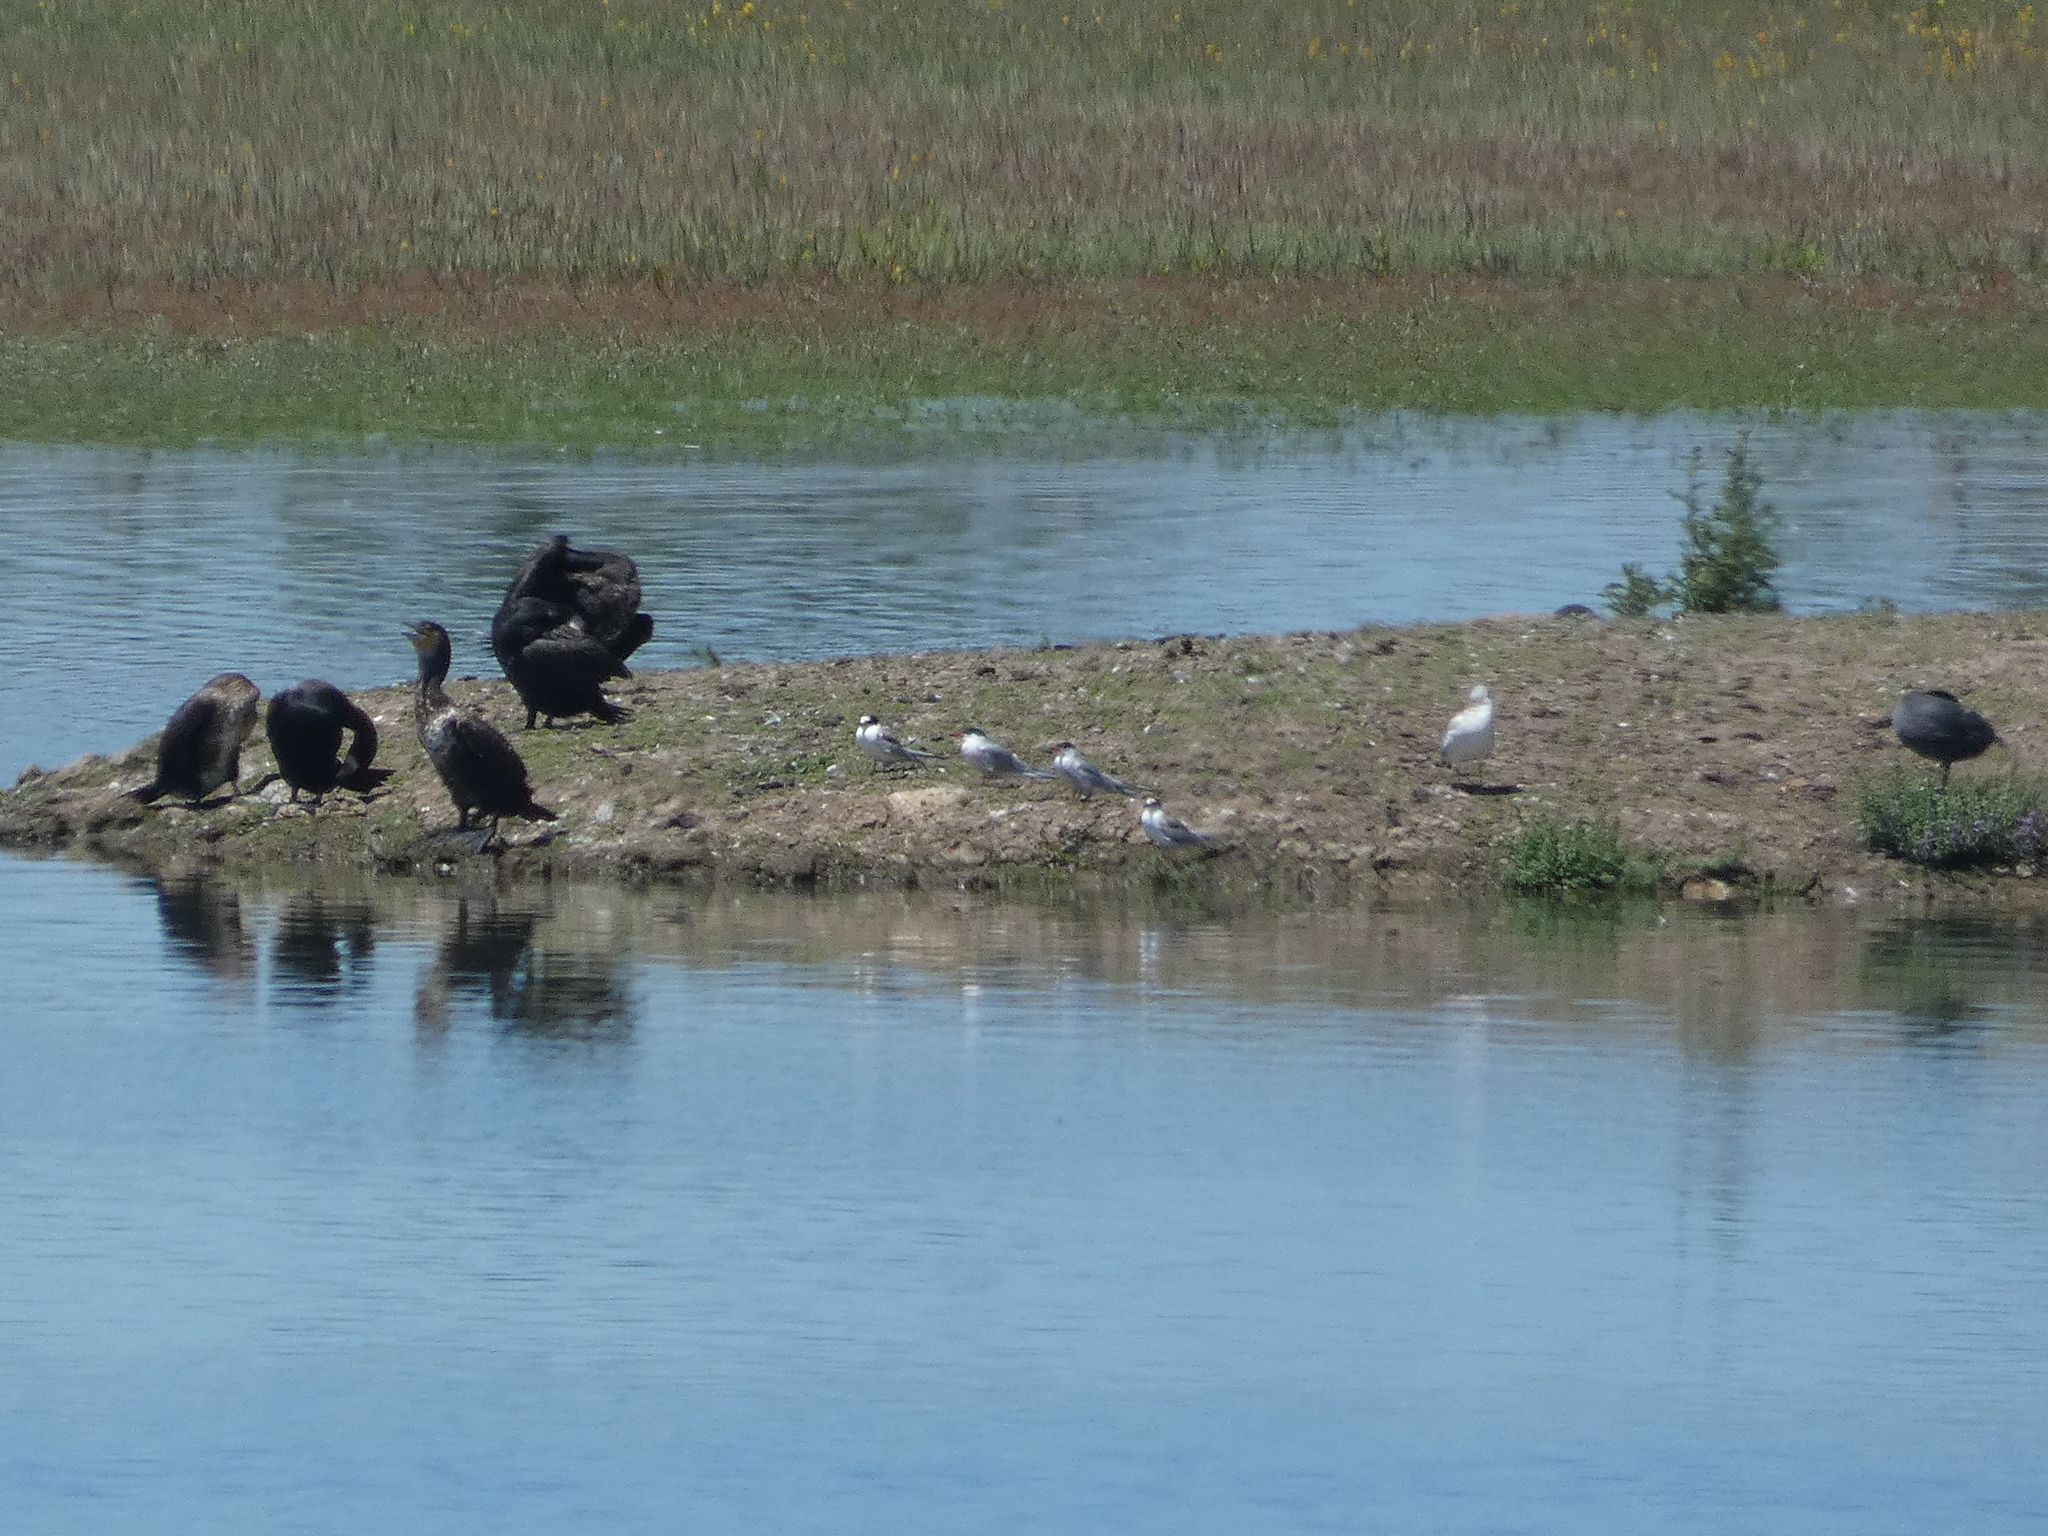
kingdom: Animalia
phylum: Chordata
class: Aves
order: Charadriiformes
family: Laridae
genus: Sterna
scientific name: Sterna hirundo
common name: Common tern
